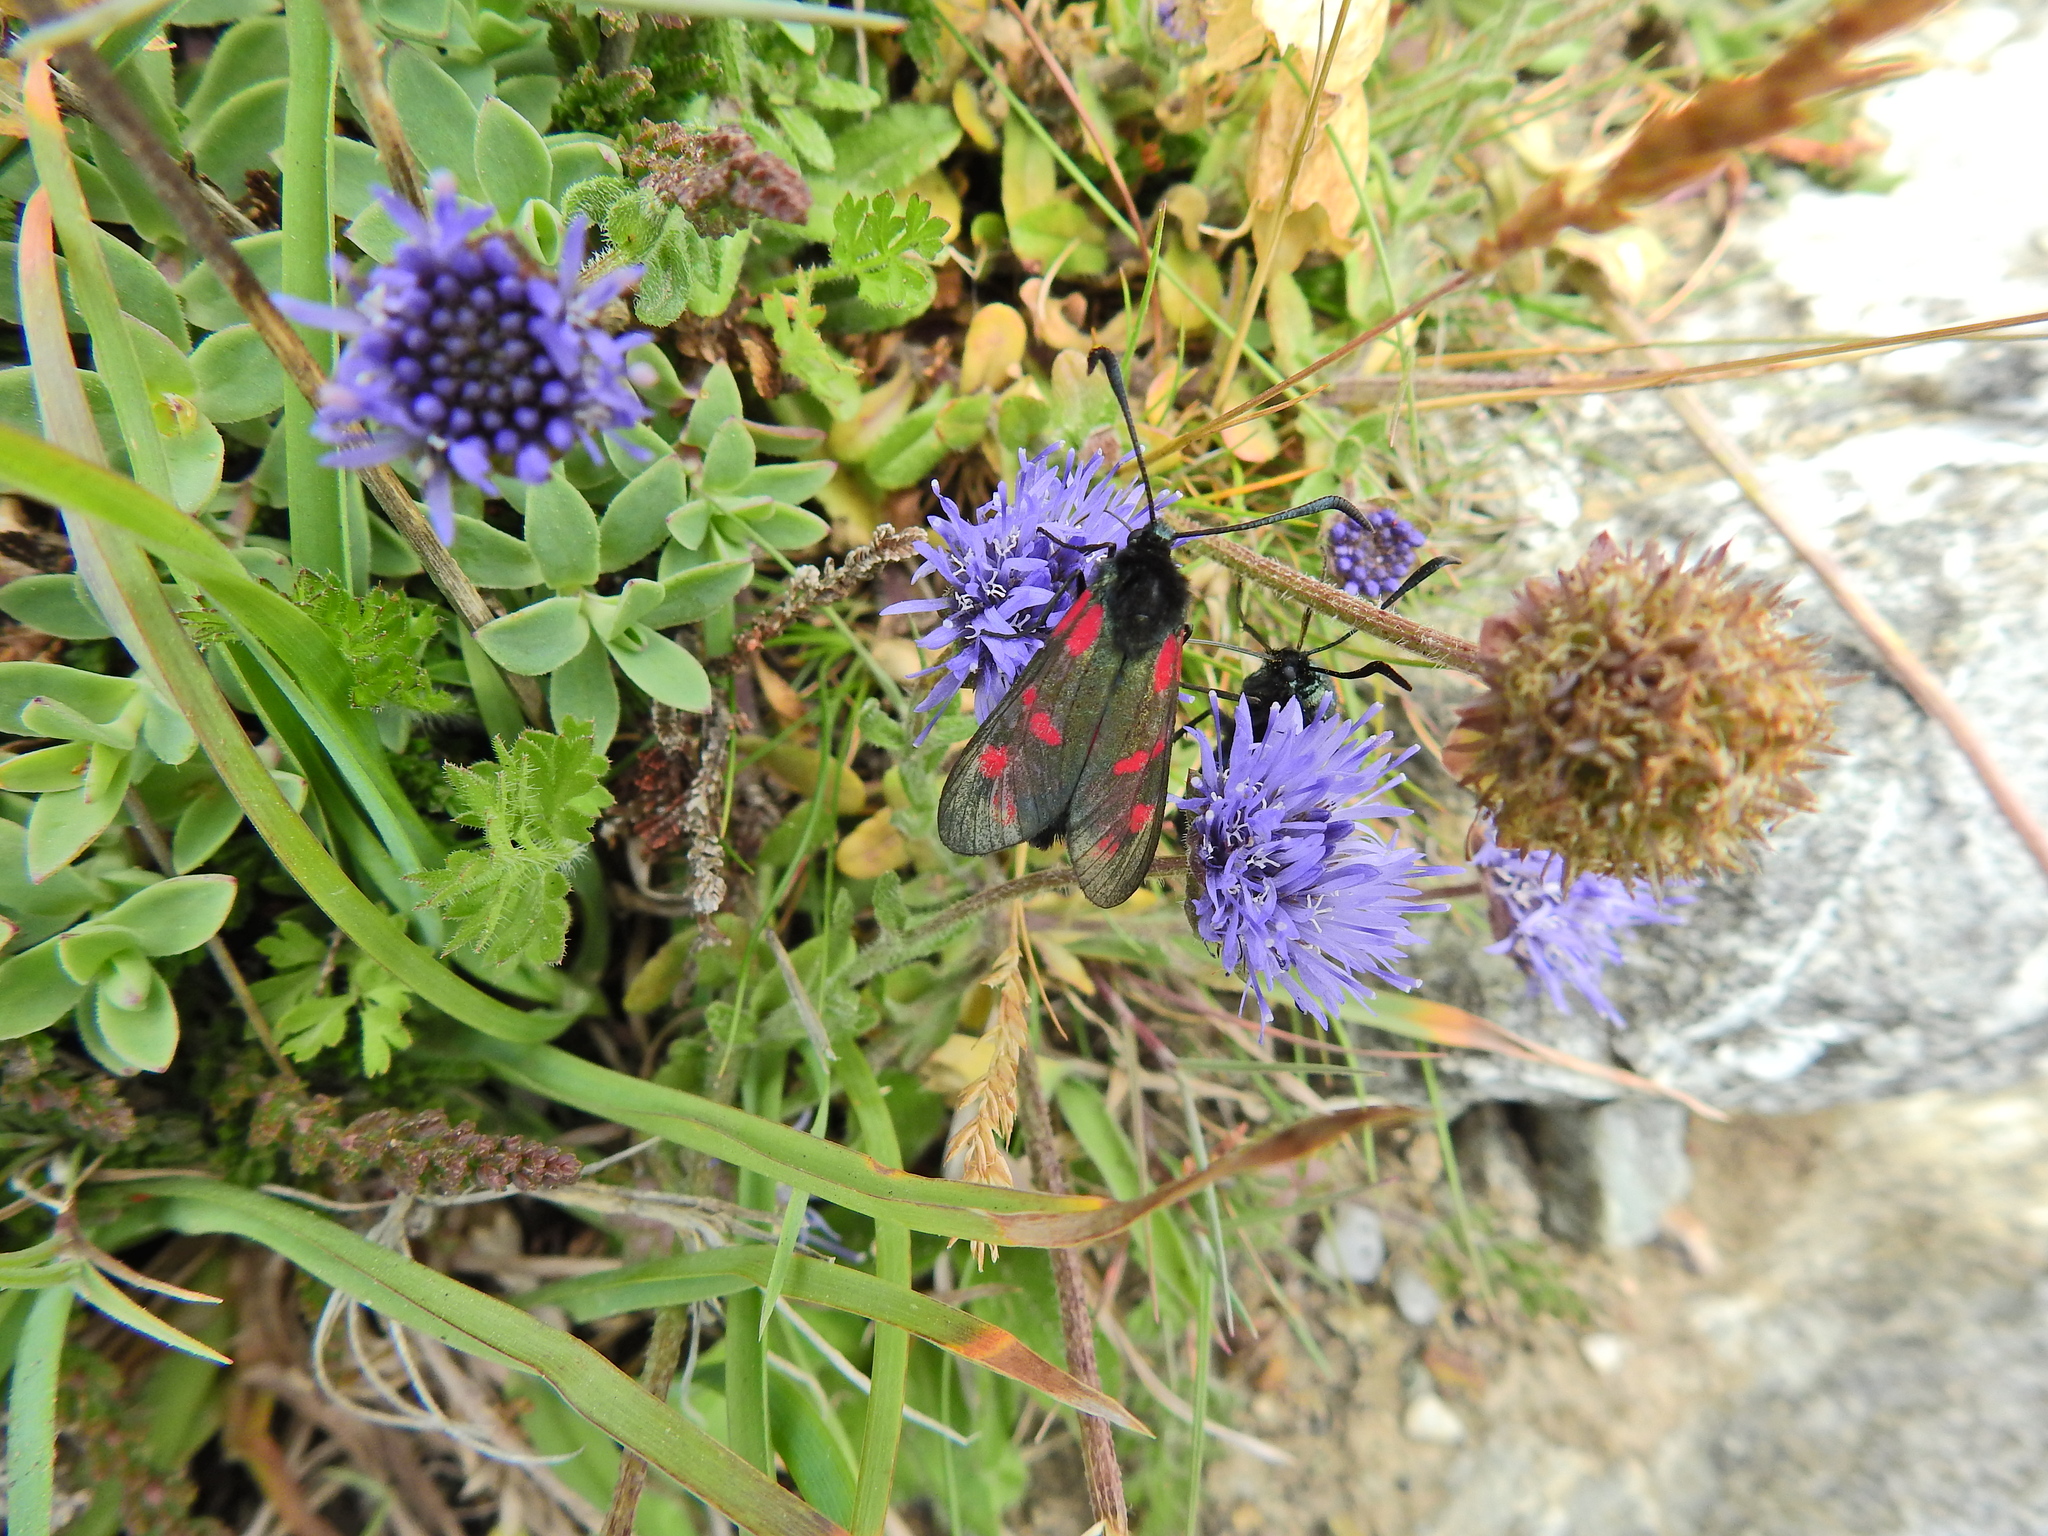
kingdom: Animalia
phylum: Arthropoda
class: Insecta
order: Lepidoptera
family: Zygaenidae
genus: Zygaena
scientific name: Zygaena filipendulae
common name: Six-spot burnet
